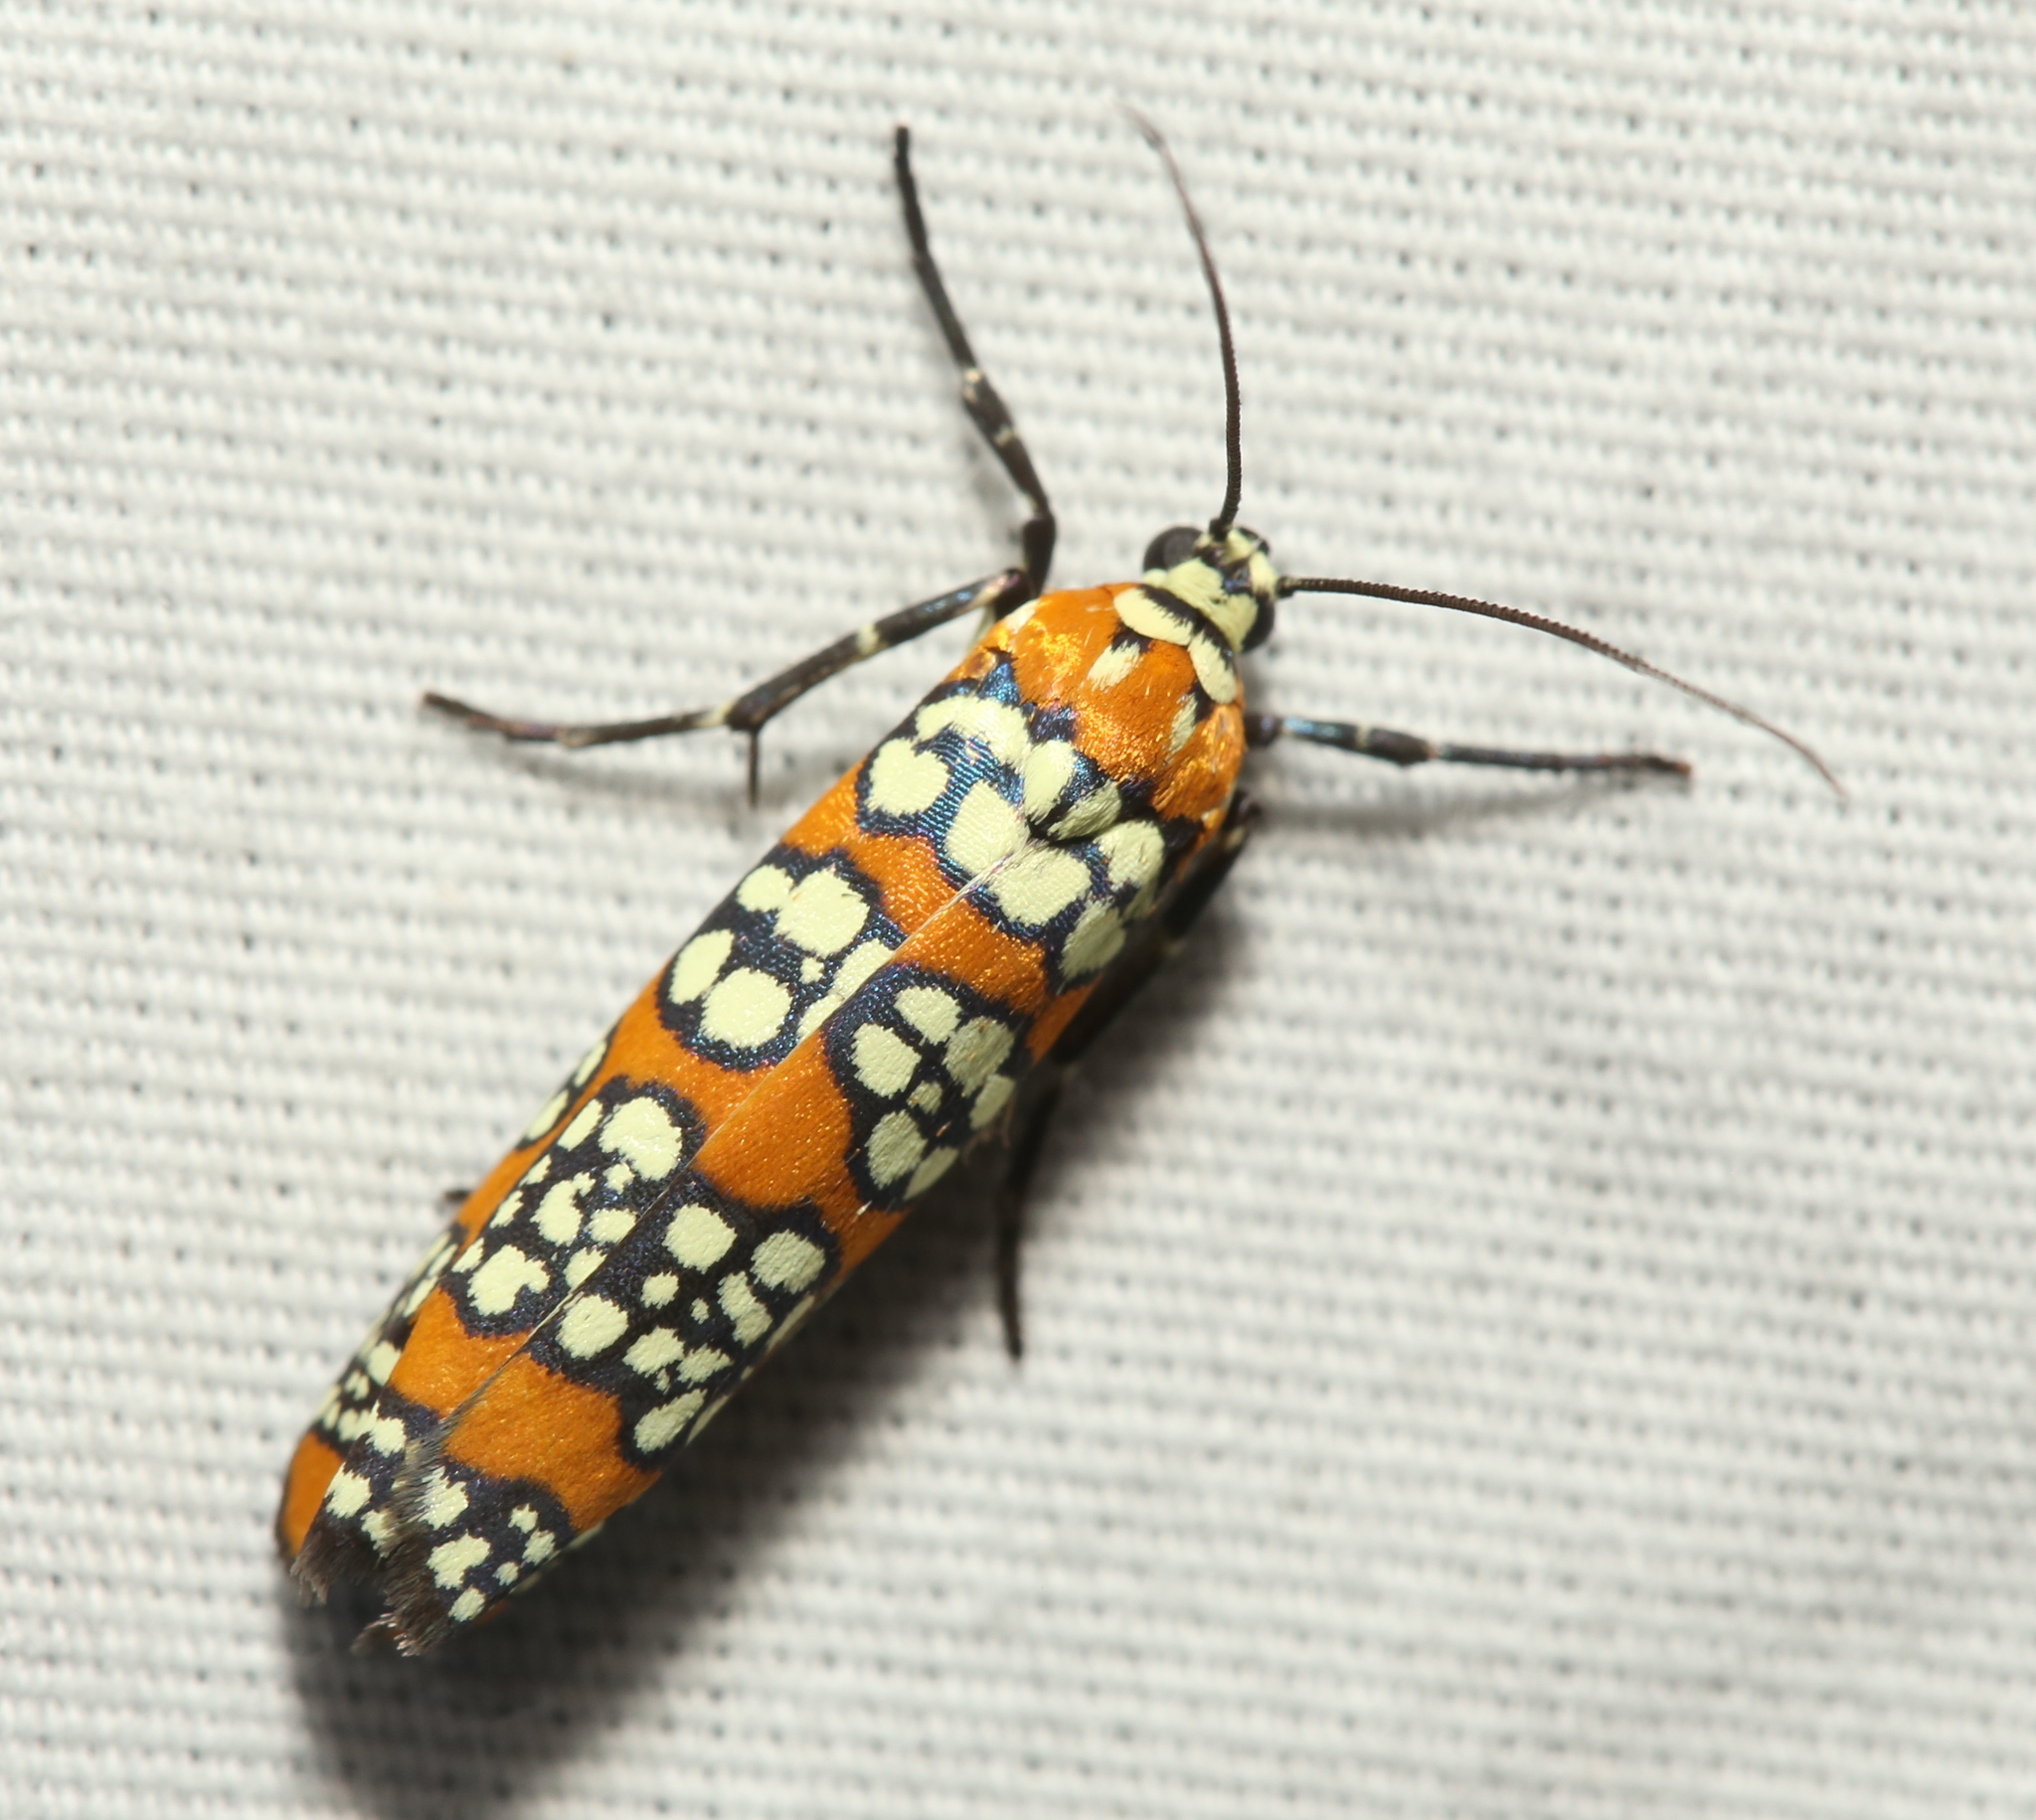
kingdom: Animalia
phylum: Arthropoda
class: Insecta
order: Lepidoptera
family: Attevidae
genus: Atteva
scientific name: Atteva punctella
